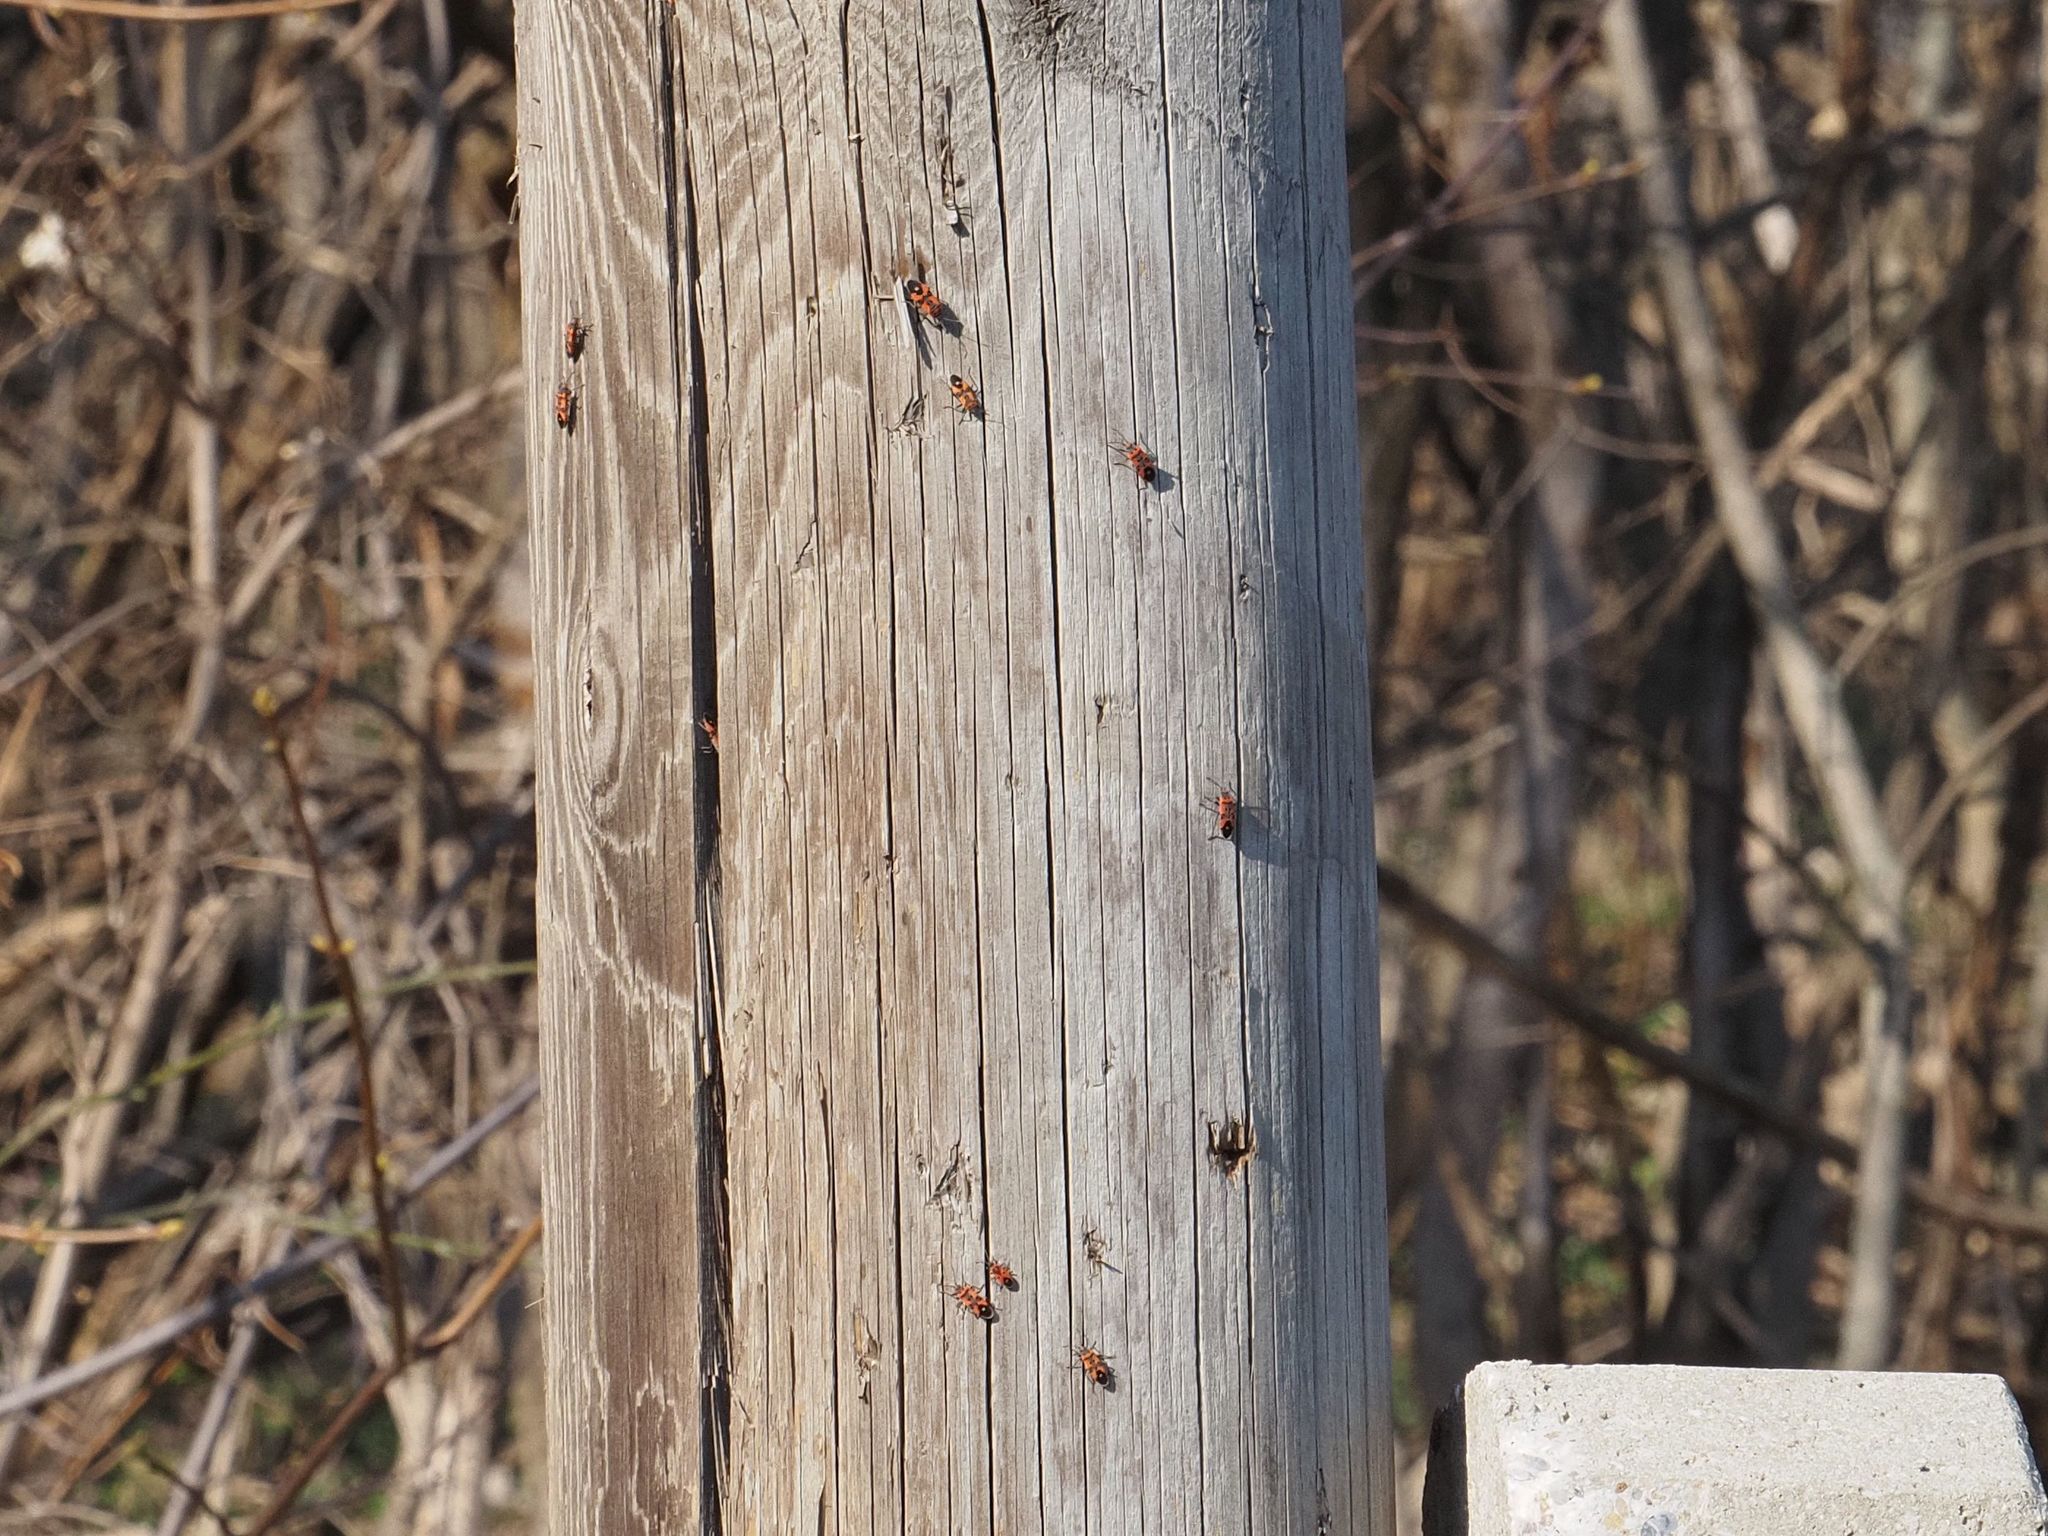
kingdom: Animalia
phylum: Arthropoda
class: Insecta
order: Hemiptera
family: Lygaeidae
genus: Lygaeus
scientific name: Lygaeus equestris
